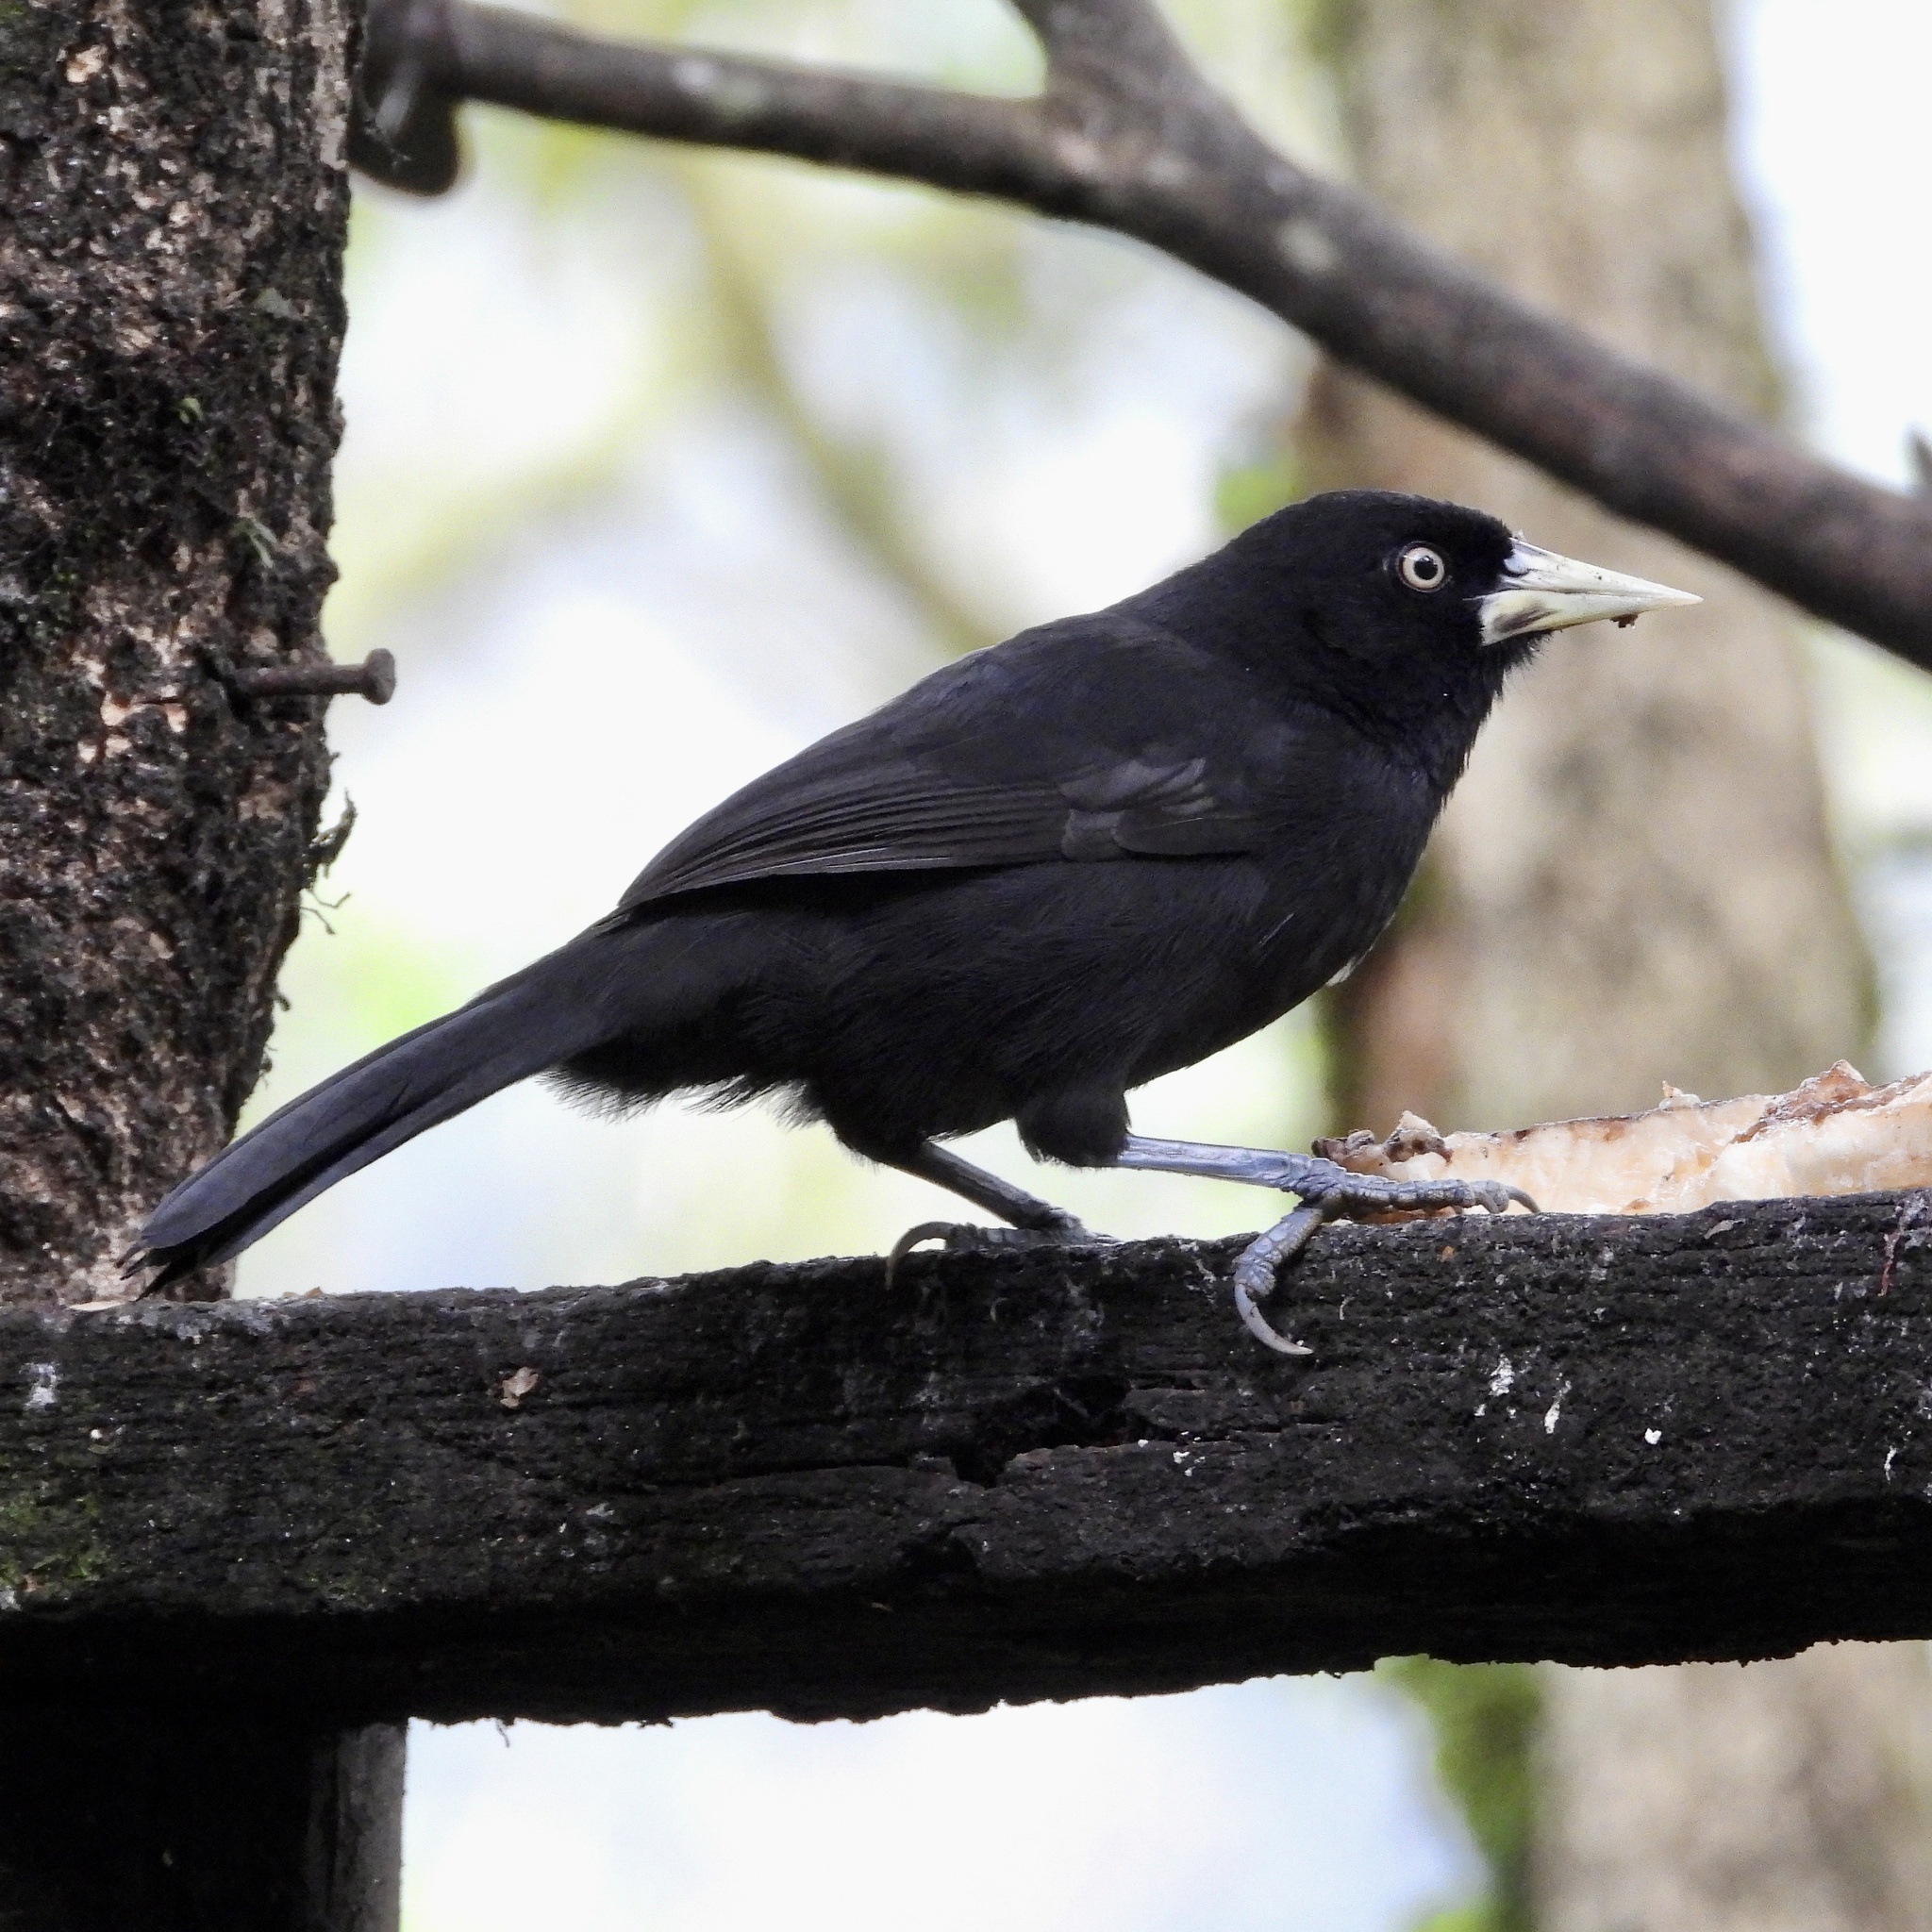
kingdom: Animalia
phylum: Chordata
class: Aves
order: Passeriformes
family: Icteridae
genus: Amblycercus
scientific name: Amblycercus holosericeus
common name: Yellow-billed cacique
